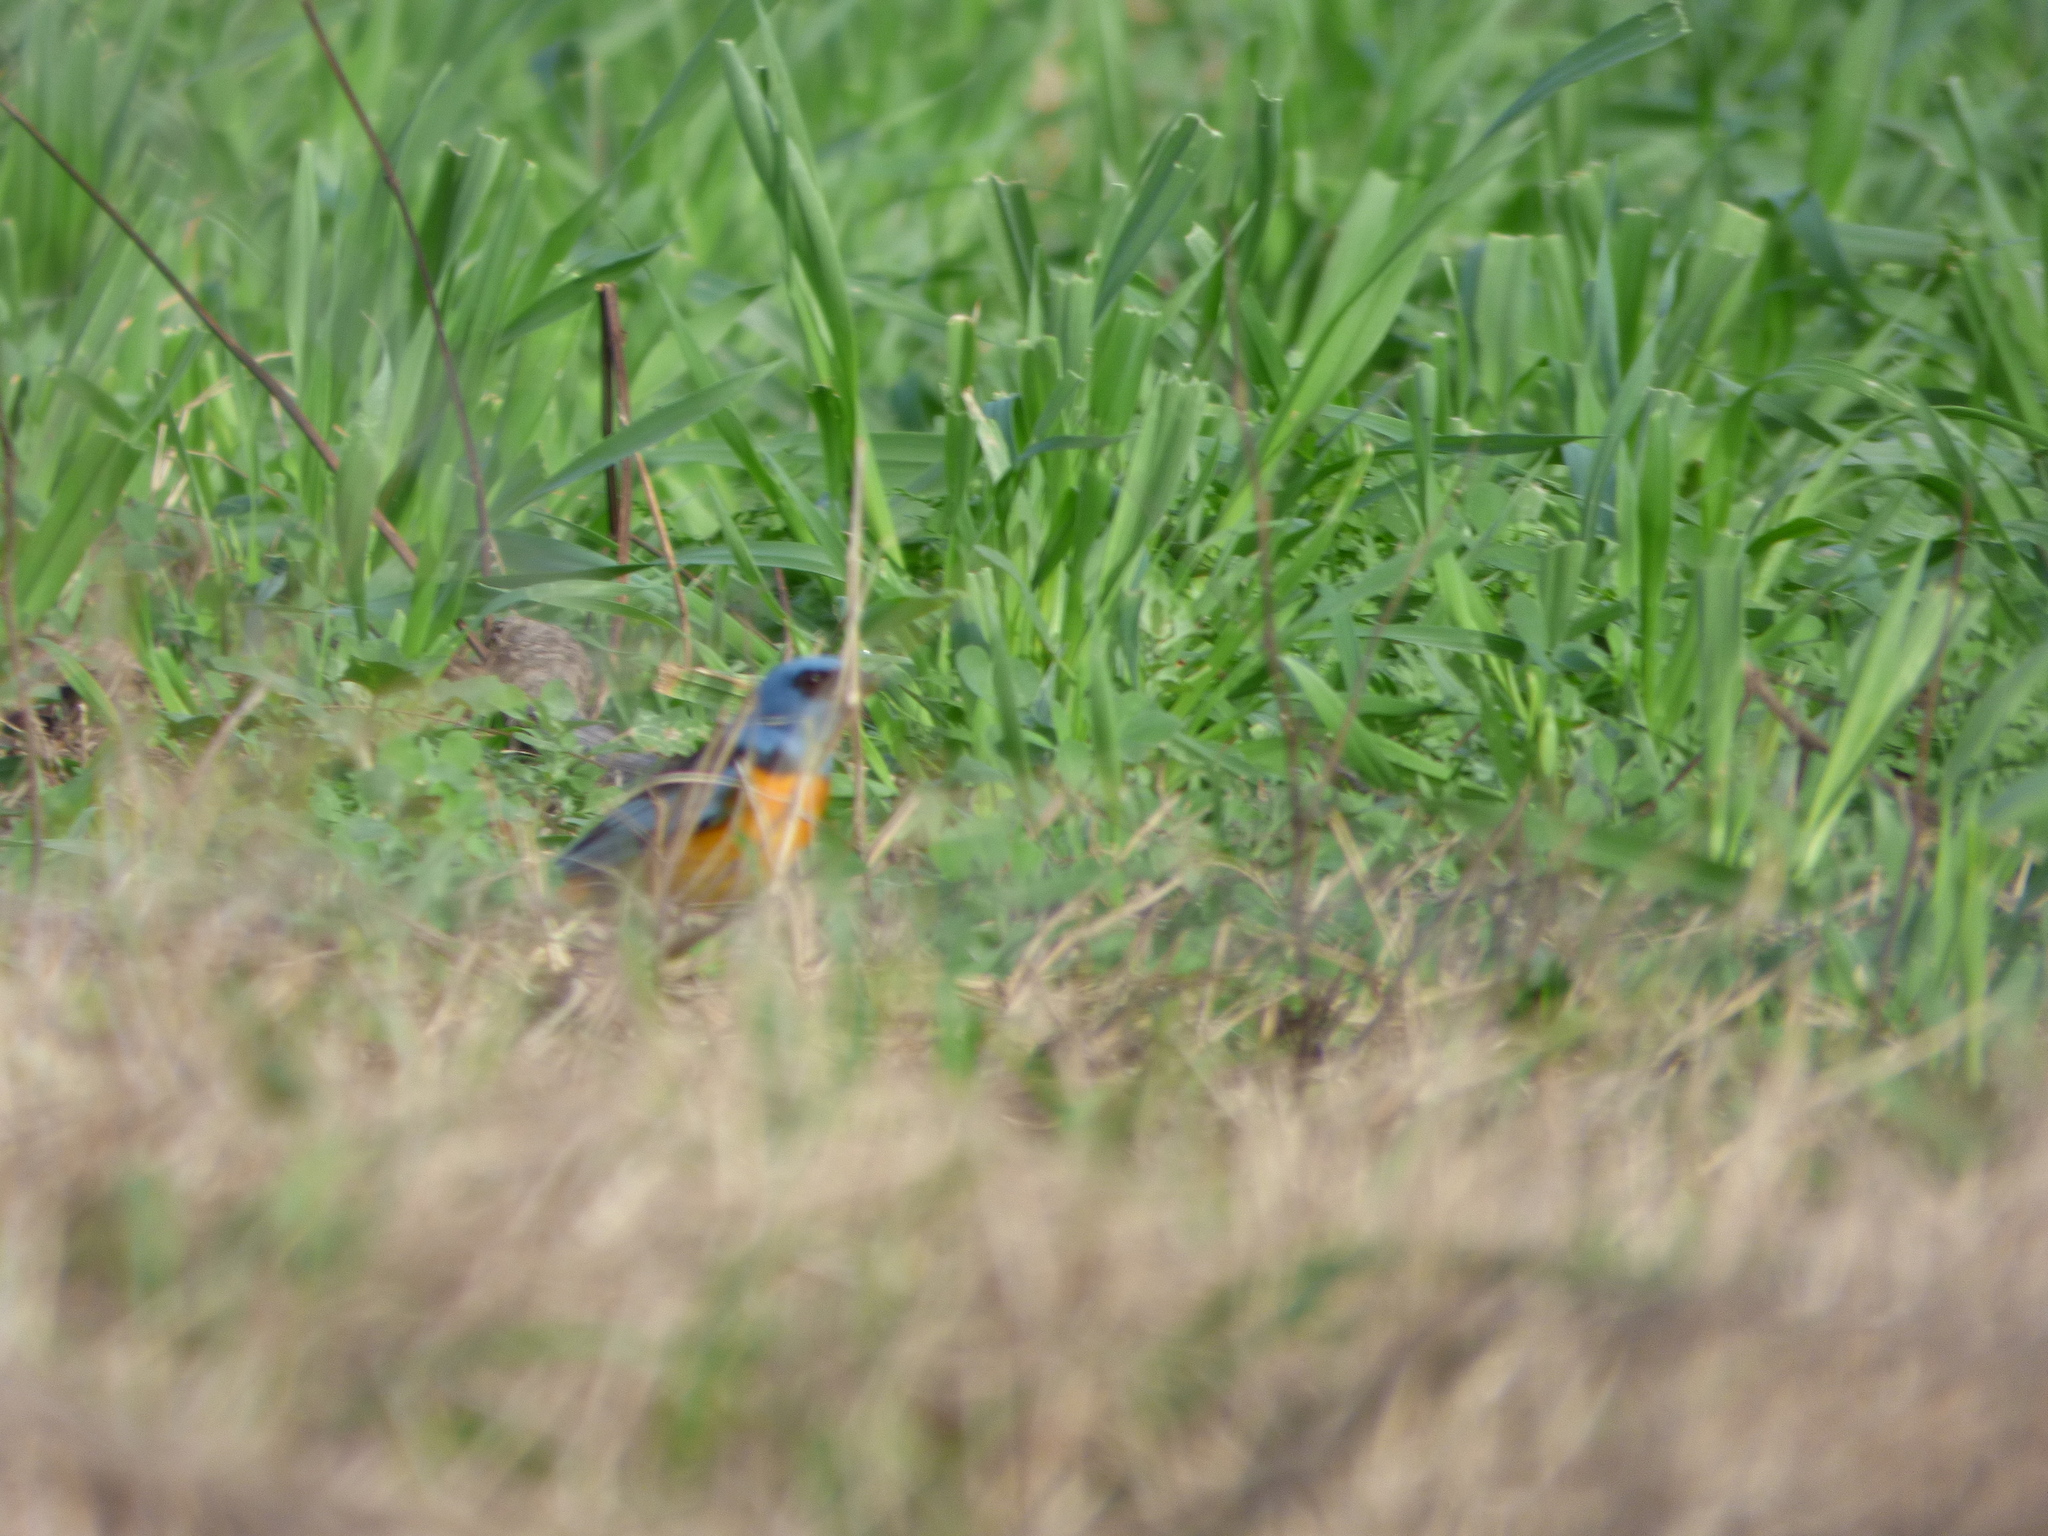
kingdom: Animalia
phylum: Chordata
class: Aves
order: Passeriformes
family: Thraupidae
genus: Rauenia
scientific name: Rauenia bonariensis
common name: Blue-and-yellow tanager
